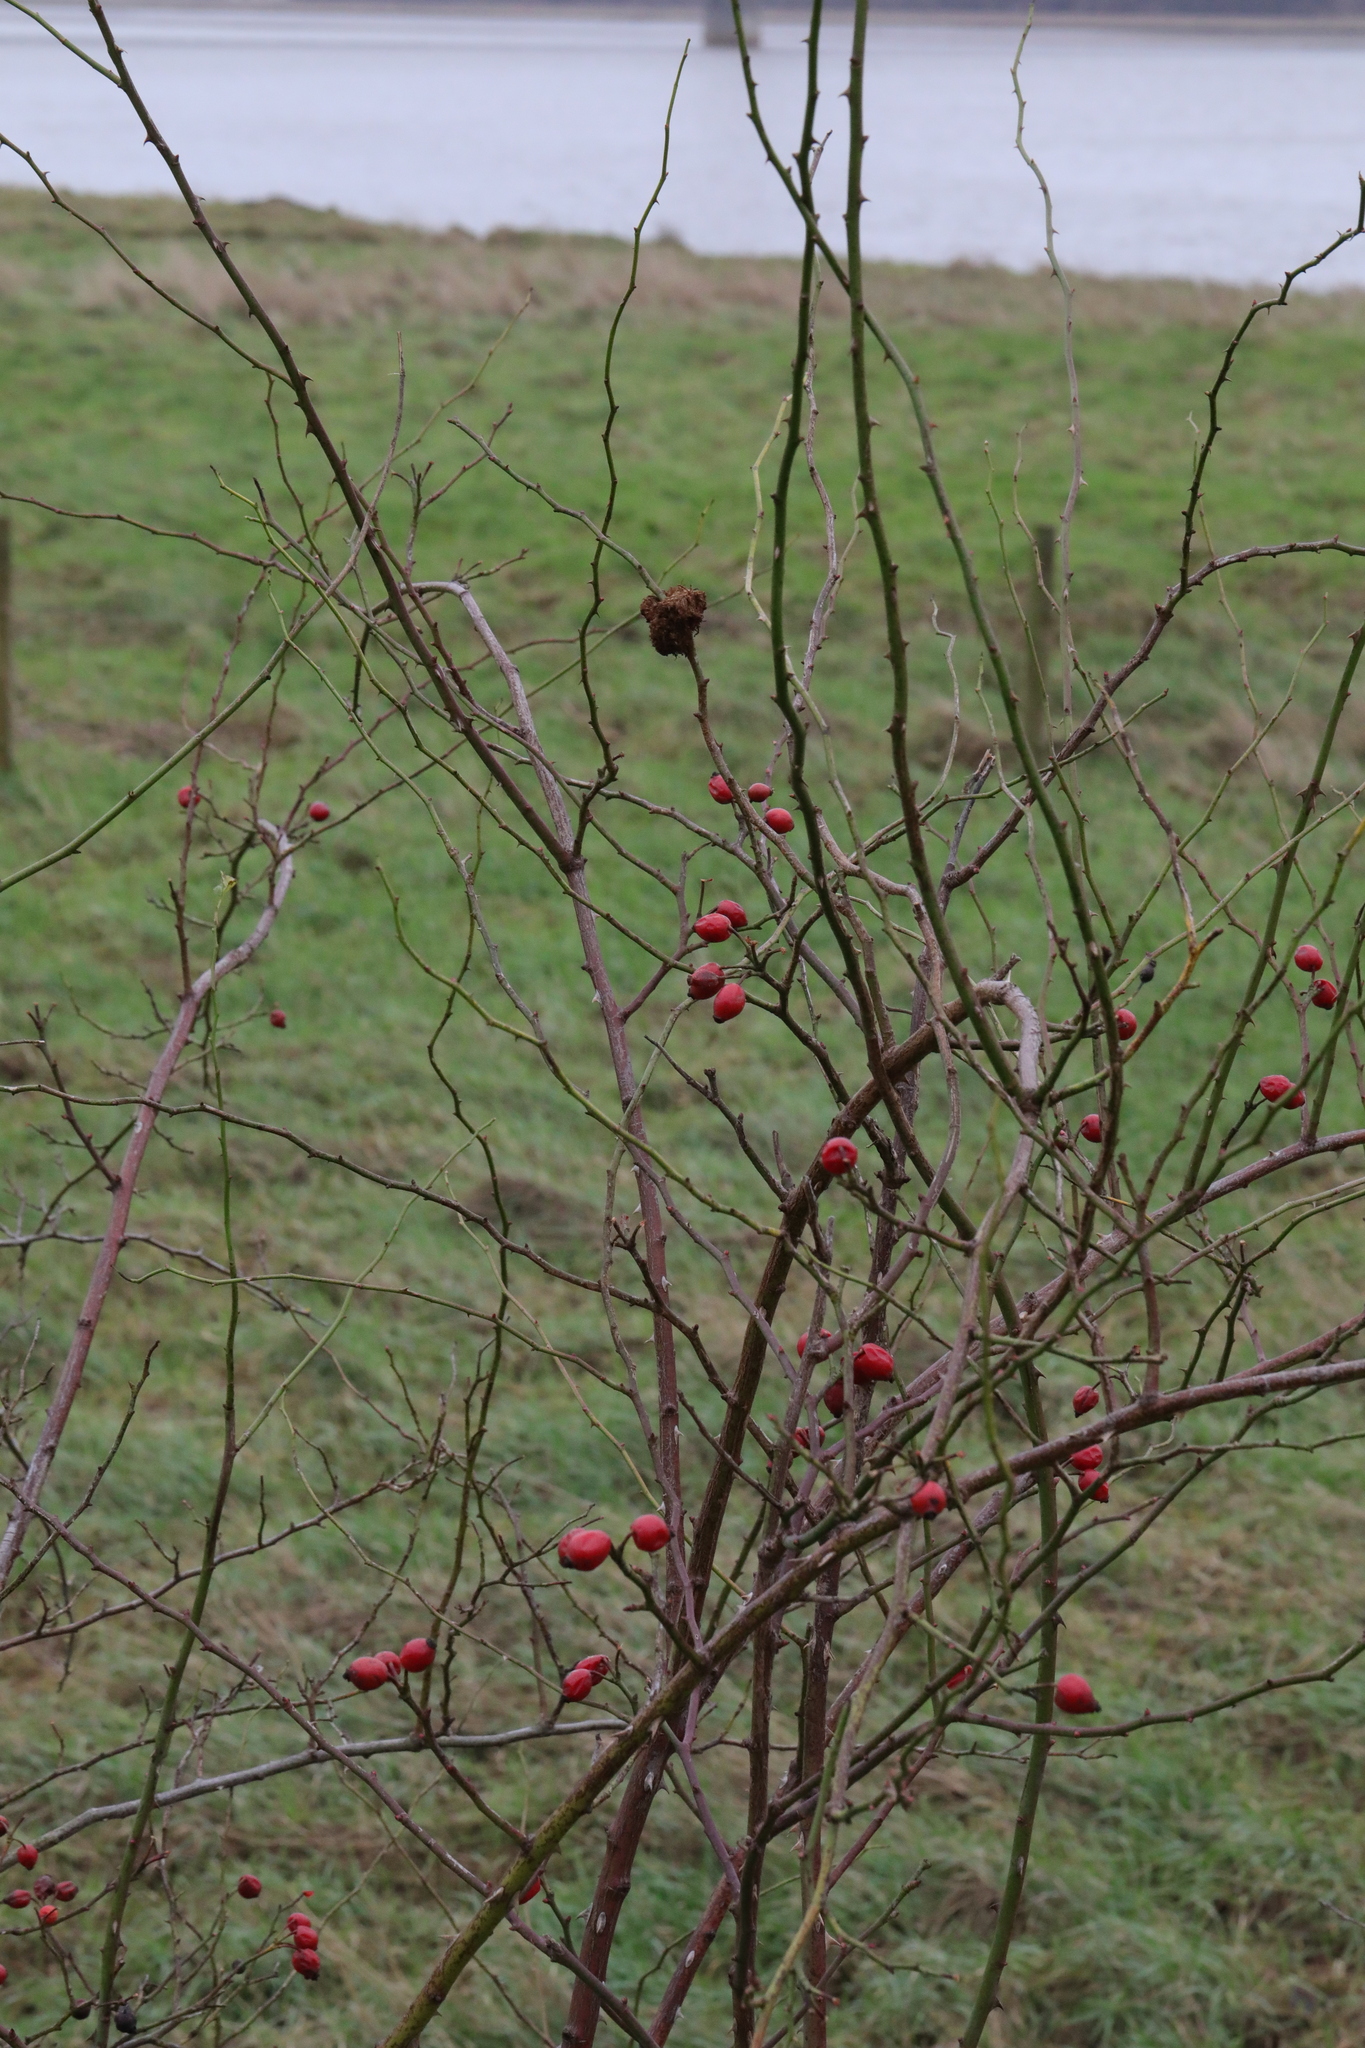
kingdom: Animalia
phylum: Arthropoda
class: Insecta
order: Hymenoptera
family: Cynipidae
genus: Diplolepis
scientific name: Diplolepis rosae
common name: Bedeguar gall
